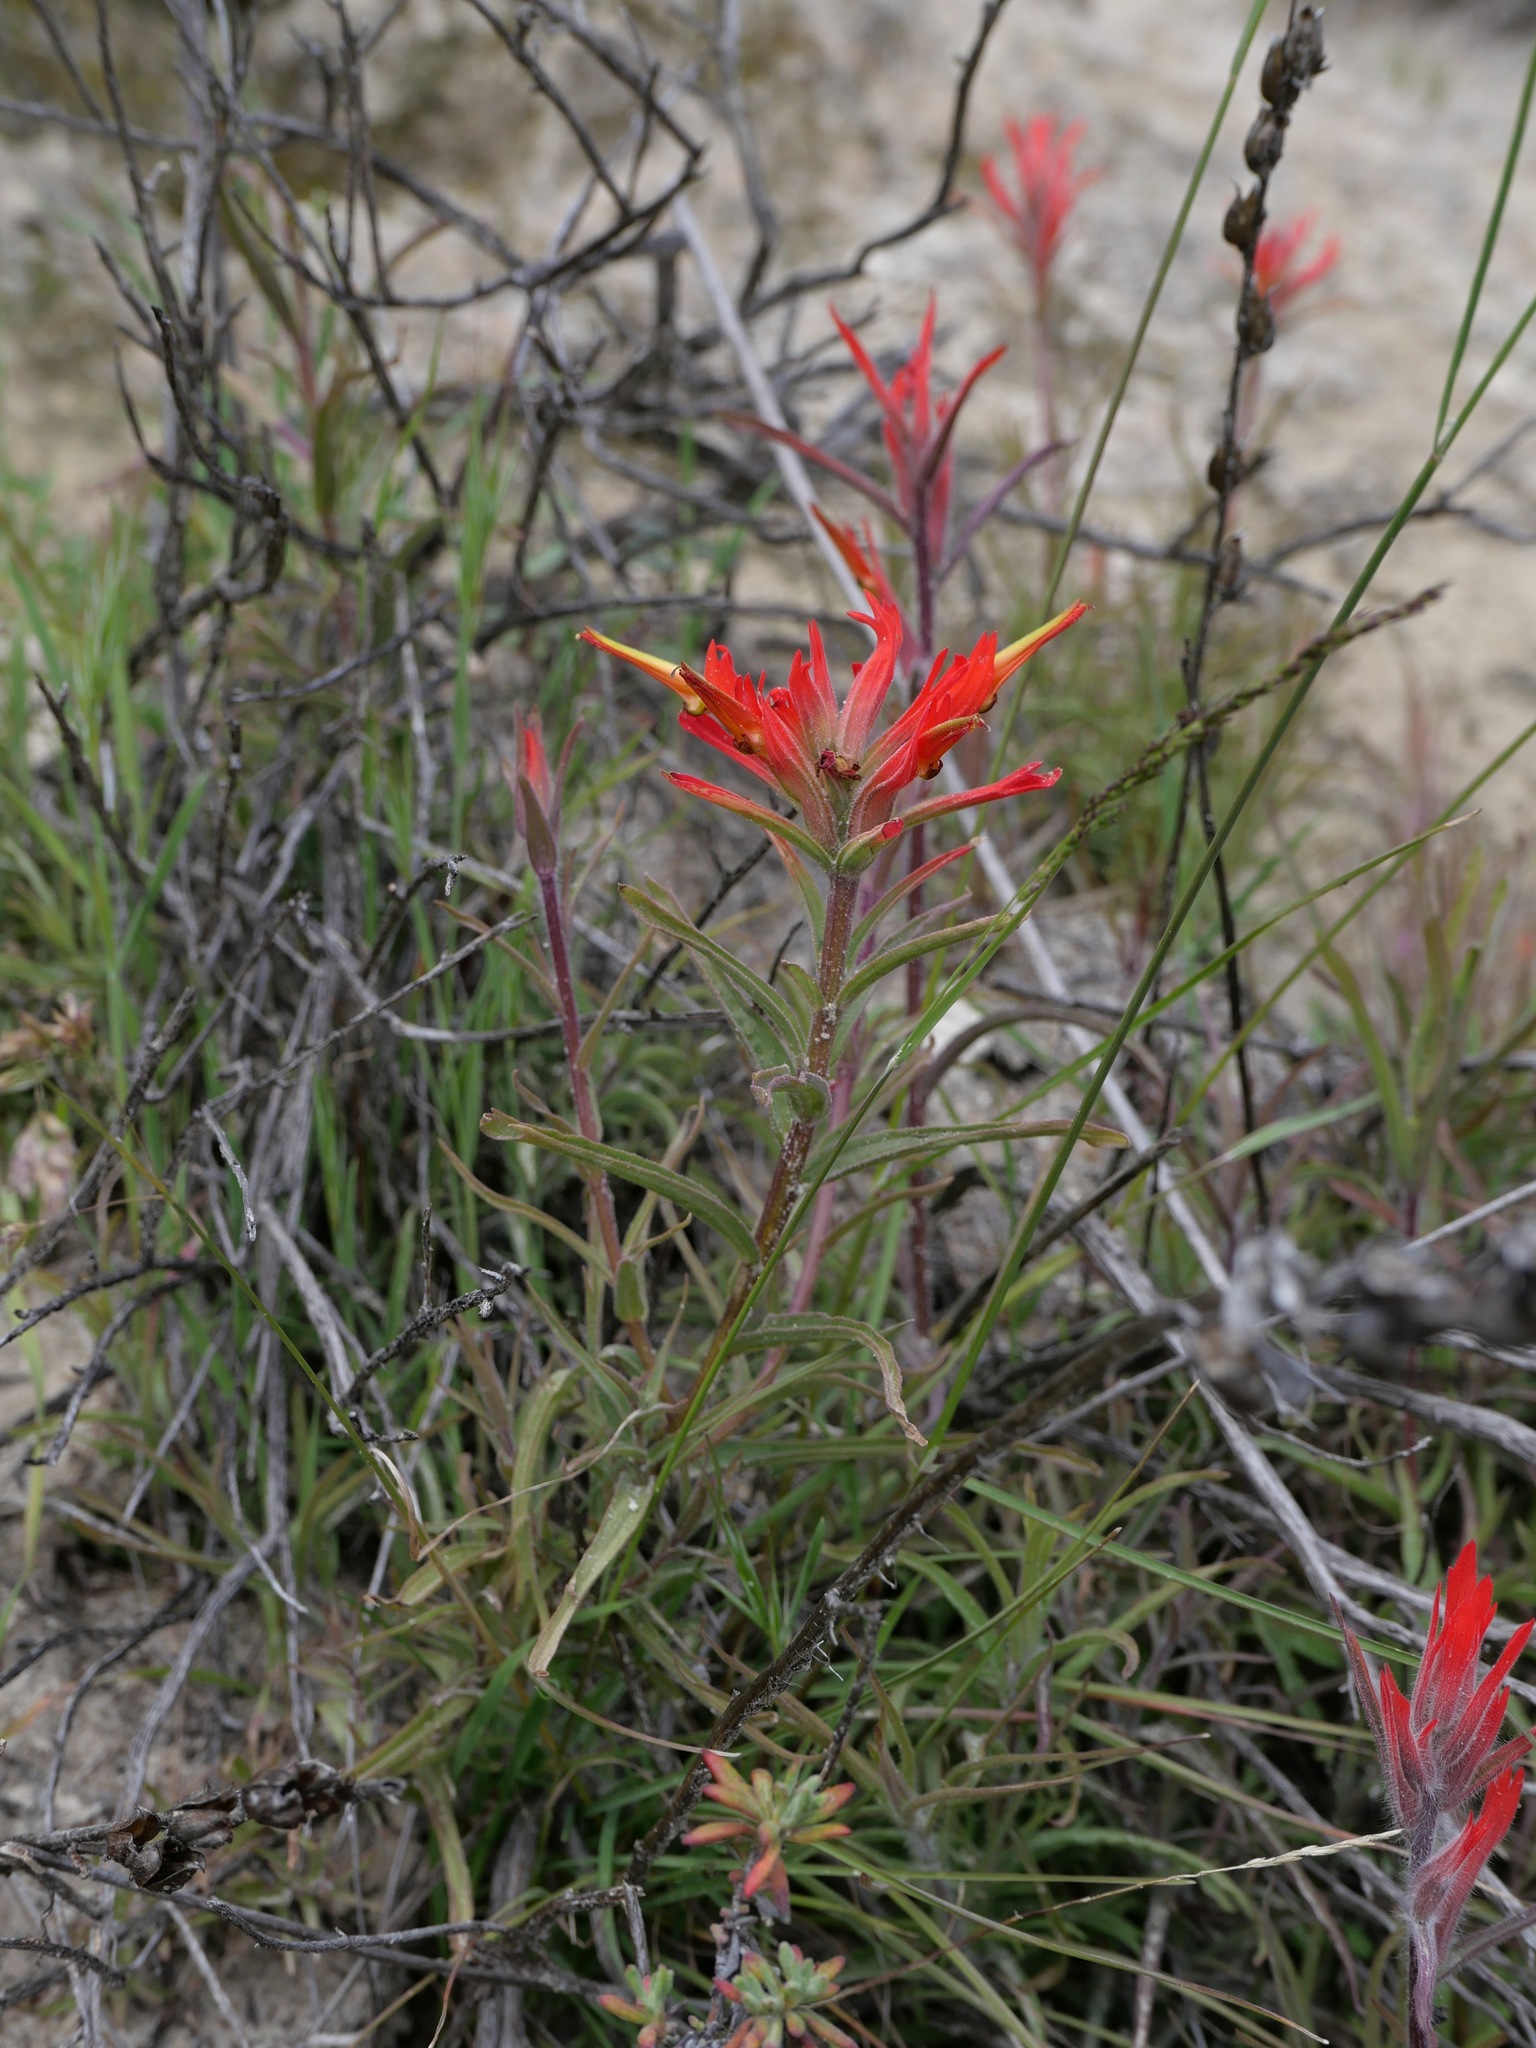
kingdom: Plantae
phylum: Tracheophyta
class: Magnoliopsida
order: Lamiales
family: Orobanchaceae
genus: Castilleja
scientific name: Castilleja subinclusa
